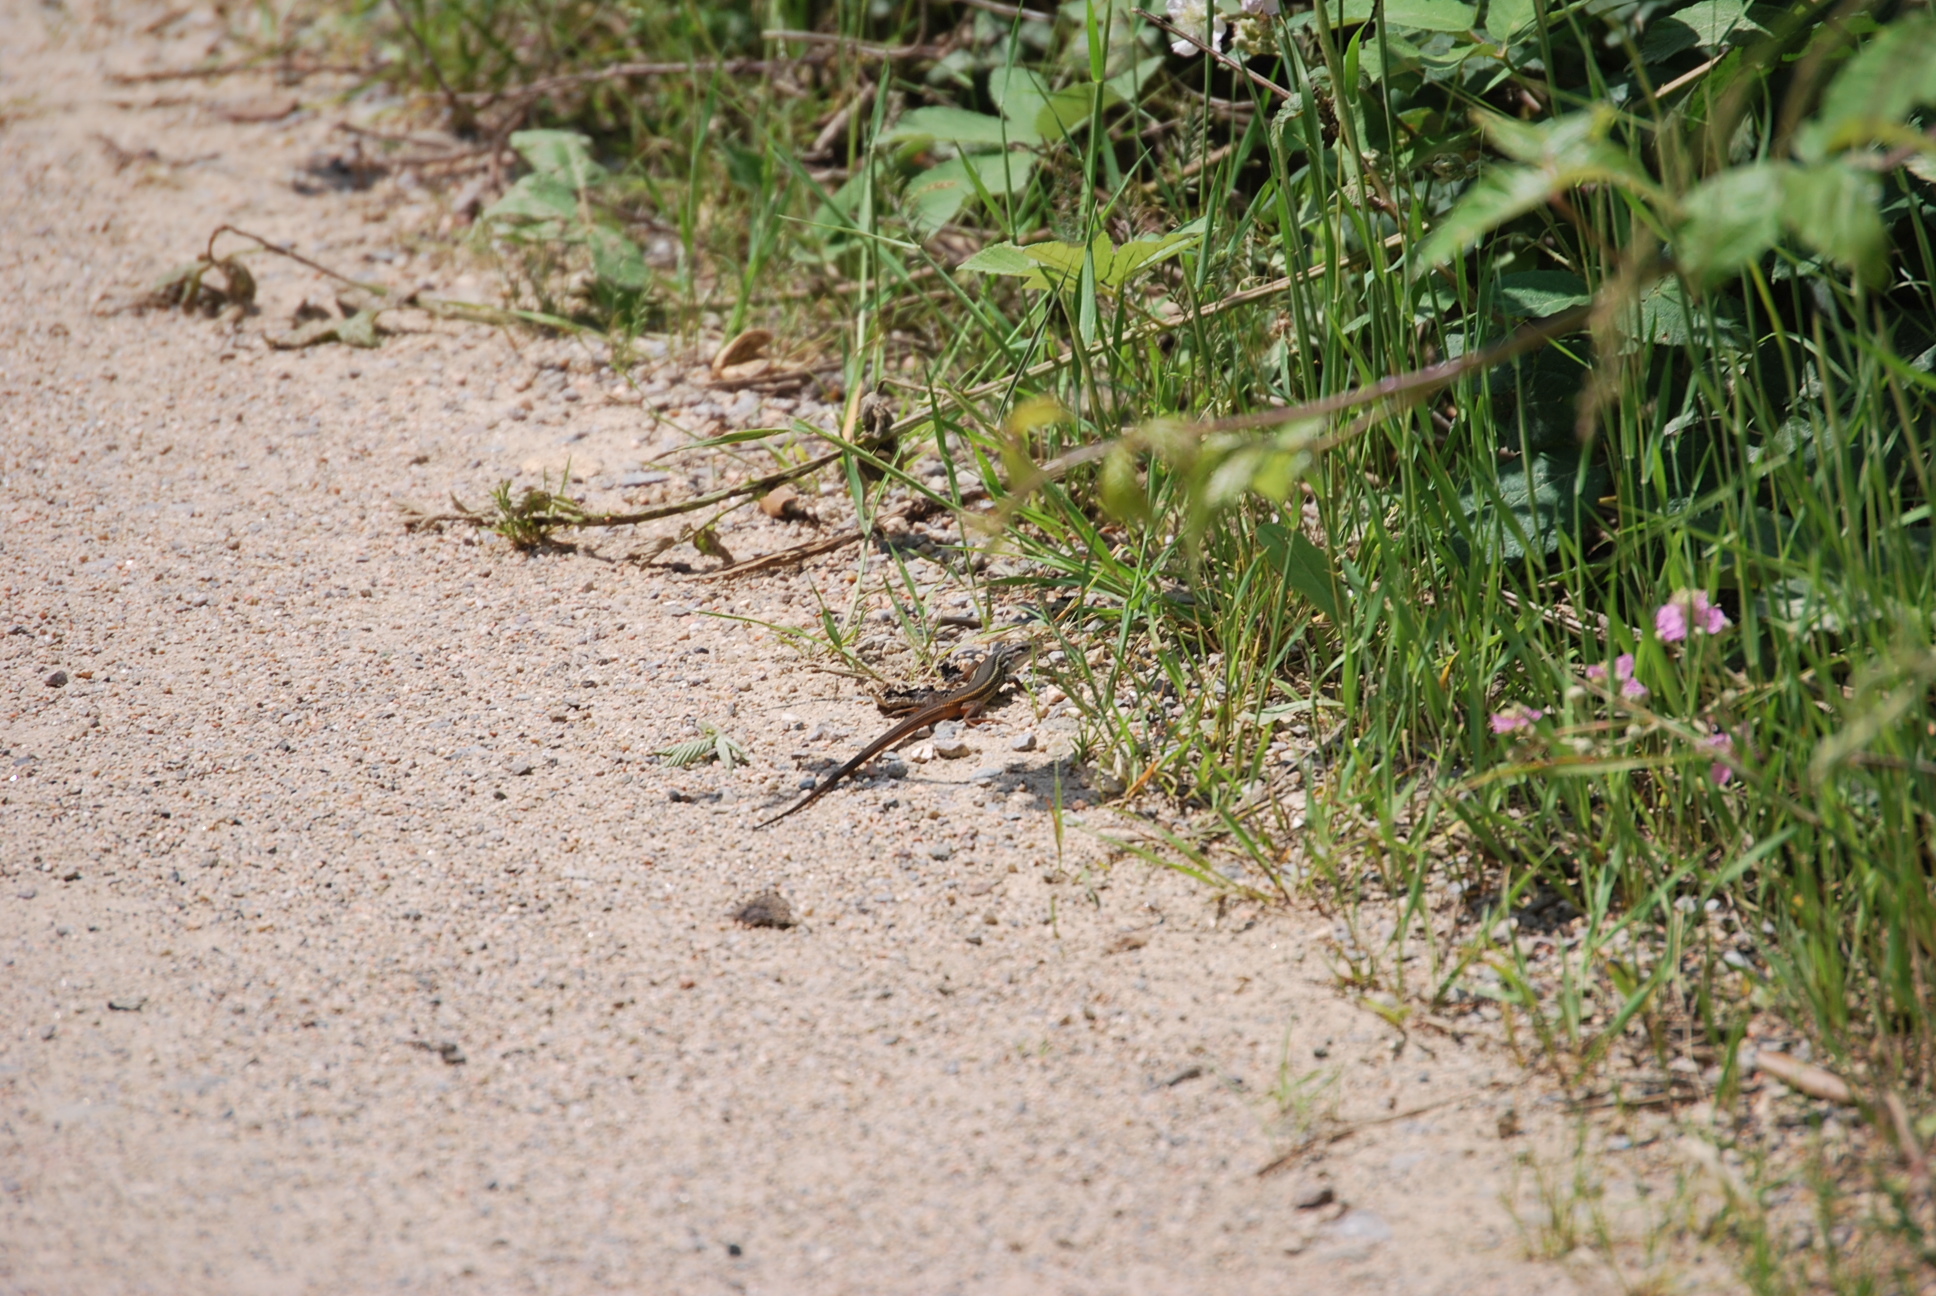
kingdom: Animalia
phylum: Chordata
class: Squamata
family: Lacertidae
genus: Psammodromus
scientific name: Psammodromus algirus
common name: Algerian psammodromus
